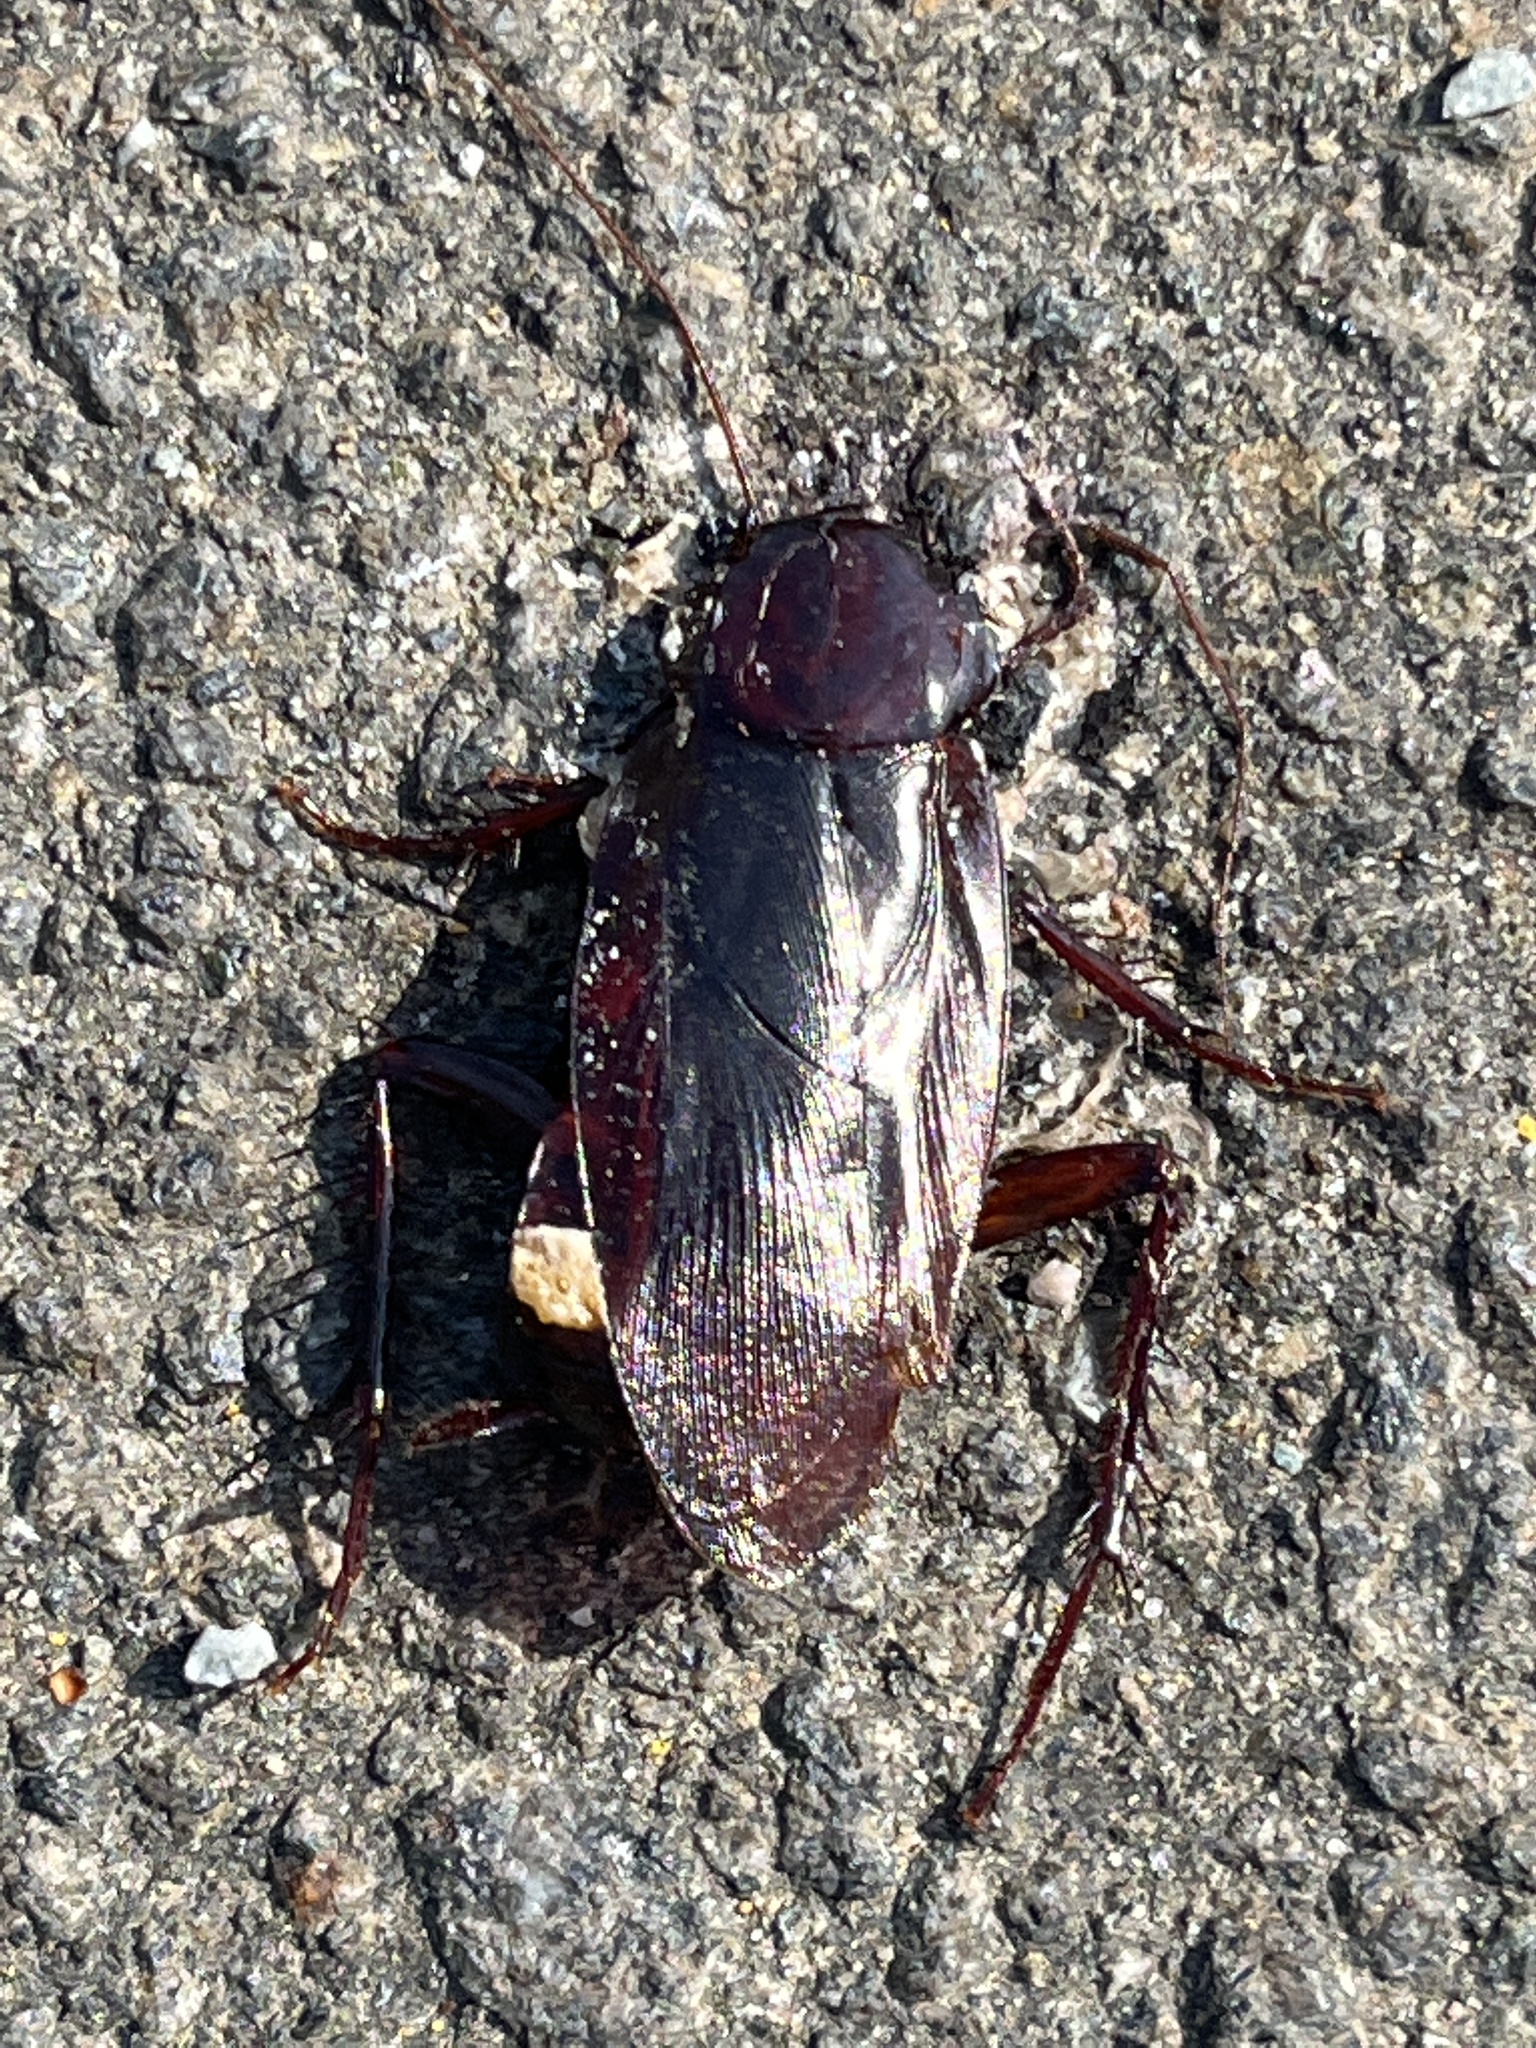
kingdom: Animalia
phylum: Arthropoda
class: Insecta
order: Blattodea
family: Blattidae
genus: Periplaneta
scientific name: Periplaneta fuliginosa
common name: Smokeybrown cockroad
